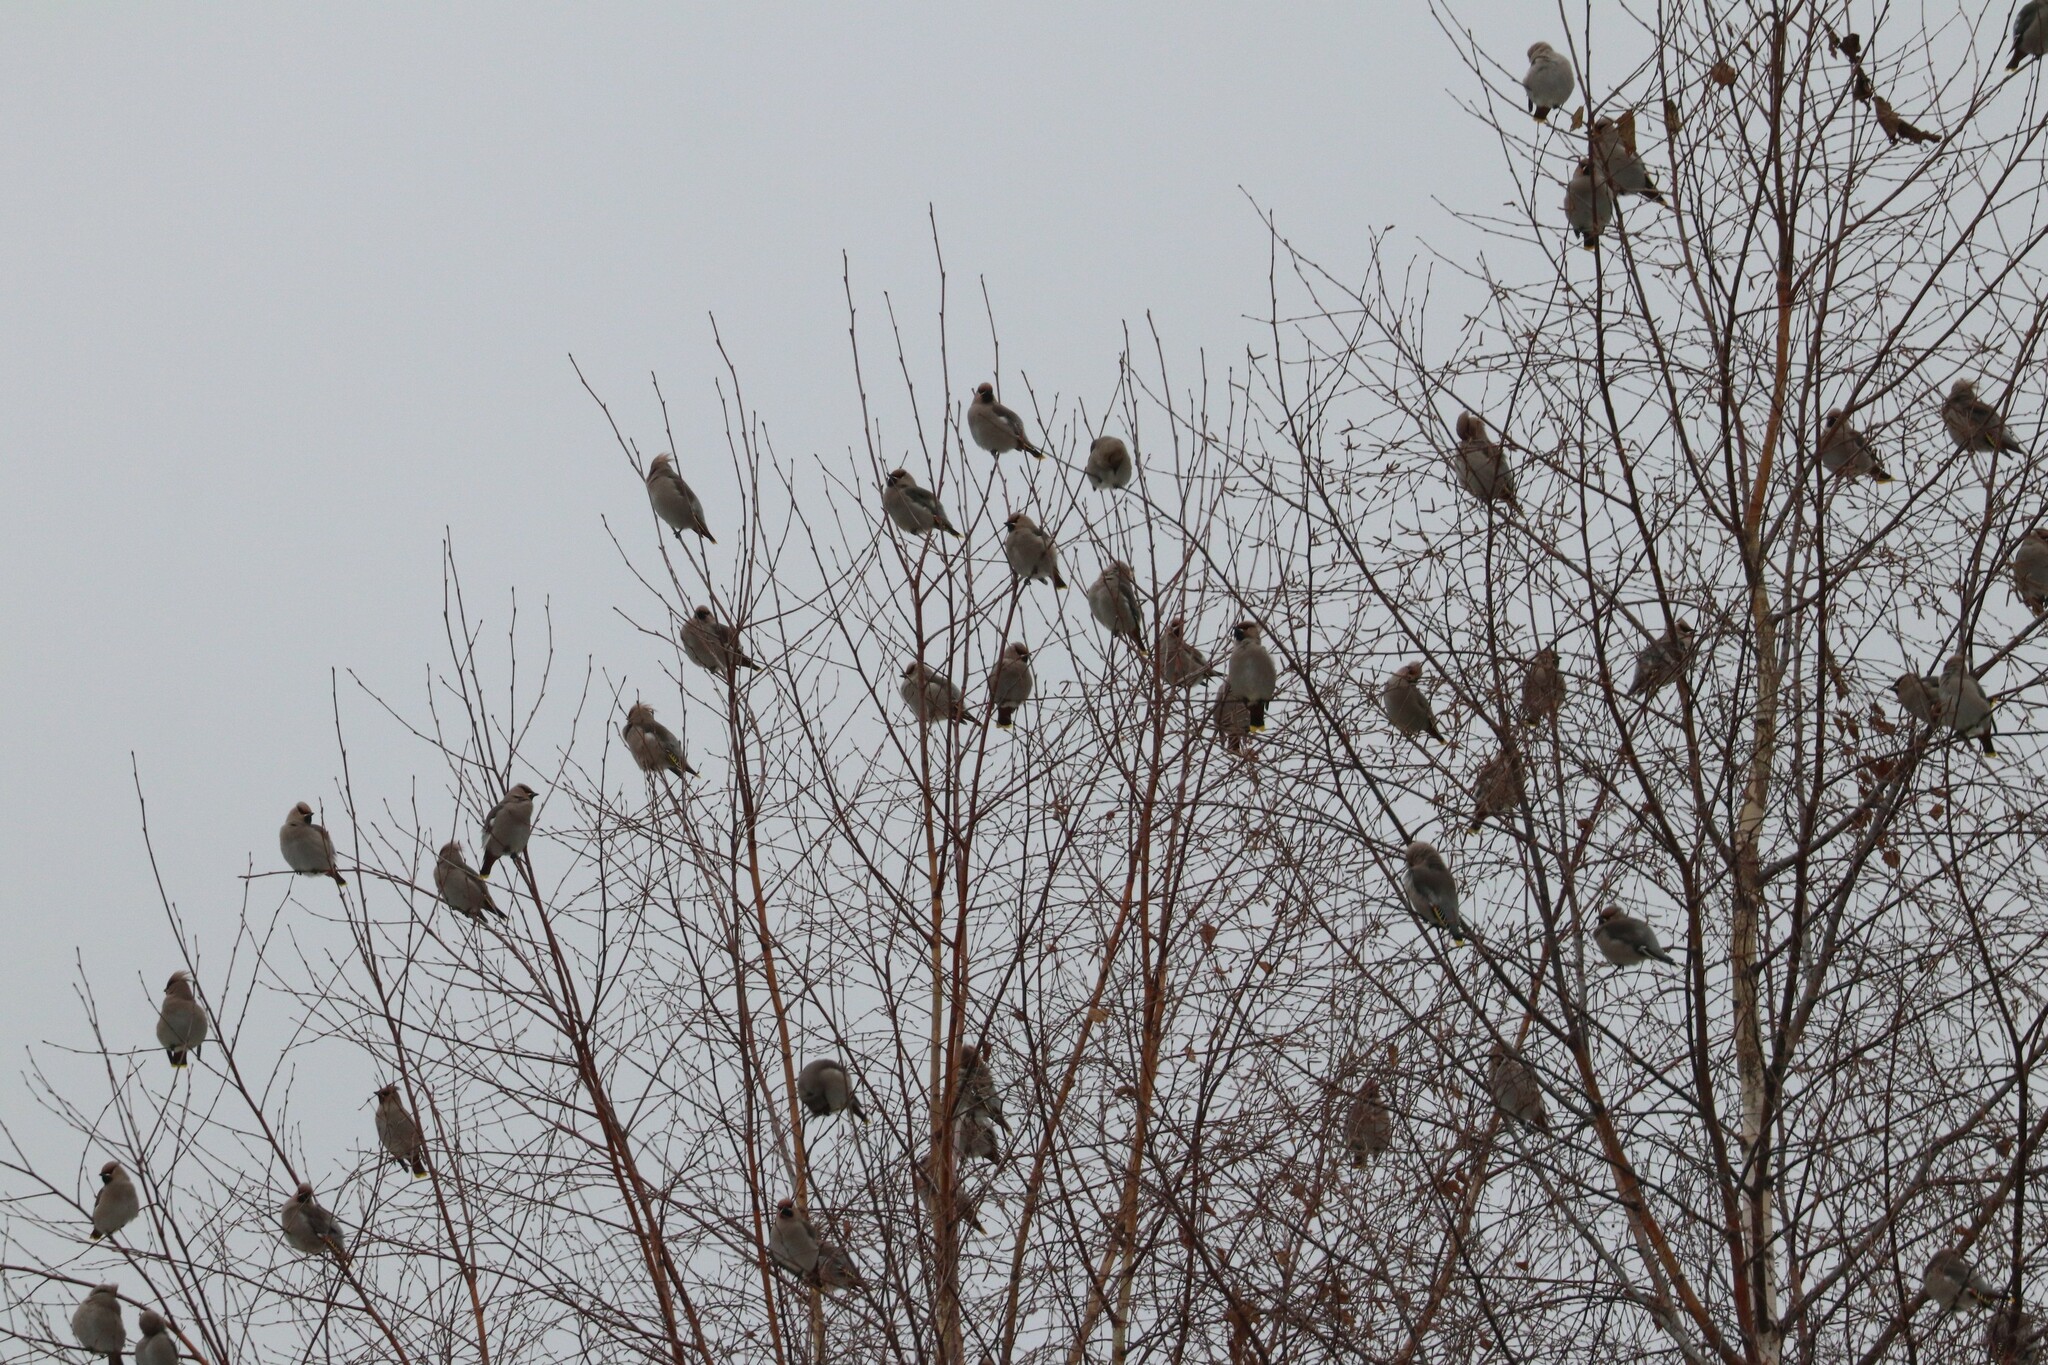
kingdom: Animalia
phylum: Chordata
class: Aves
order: Passeriformes
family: Bombycillidae
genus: Bombycilla
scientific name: Bombycilla garrulus
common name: Bohemian waxwing
